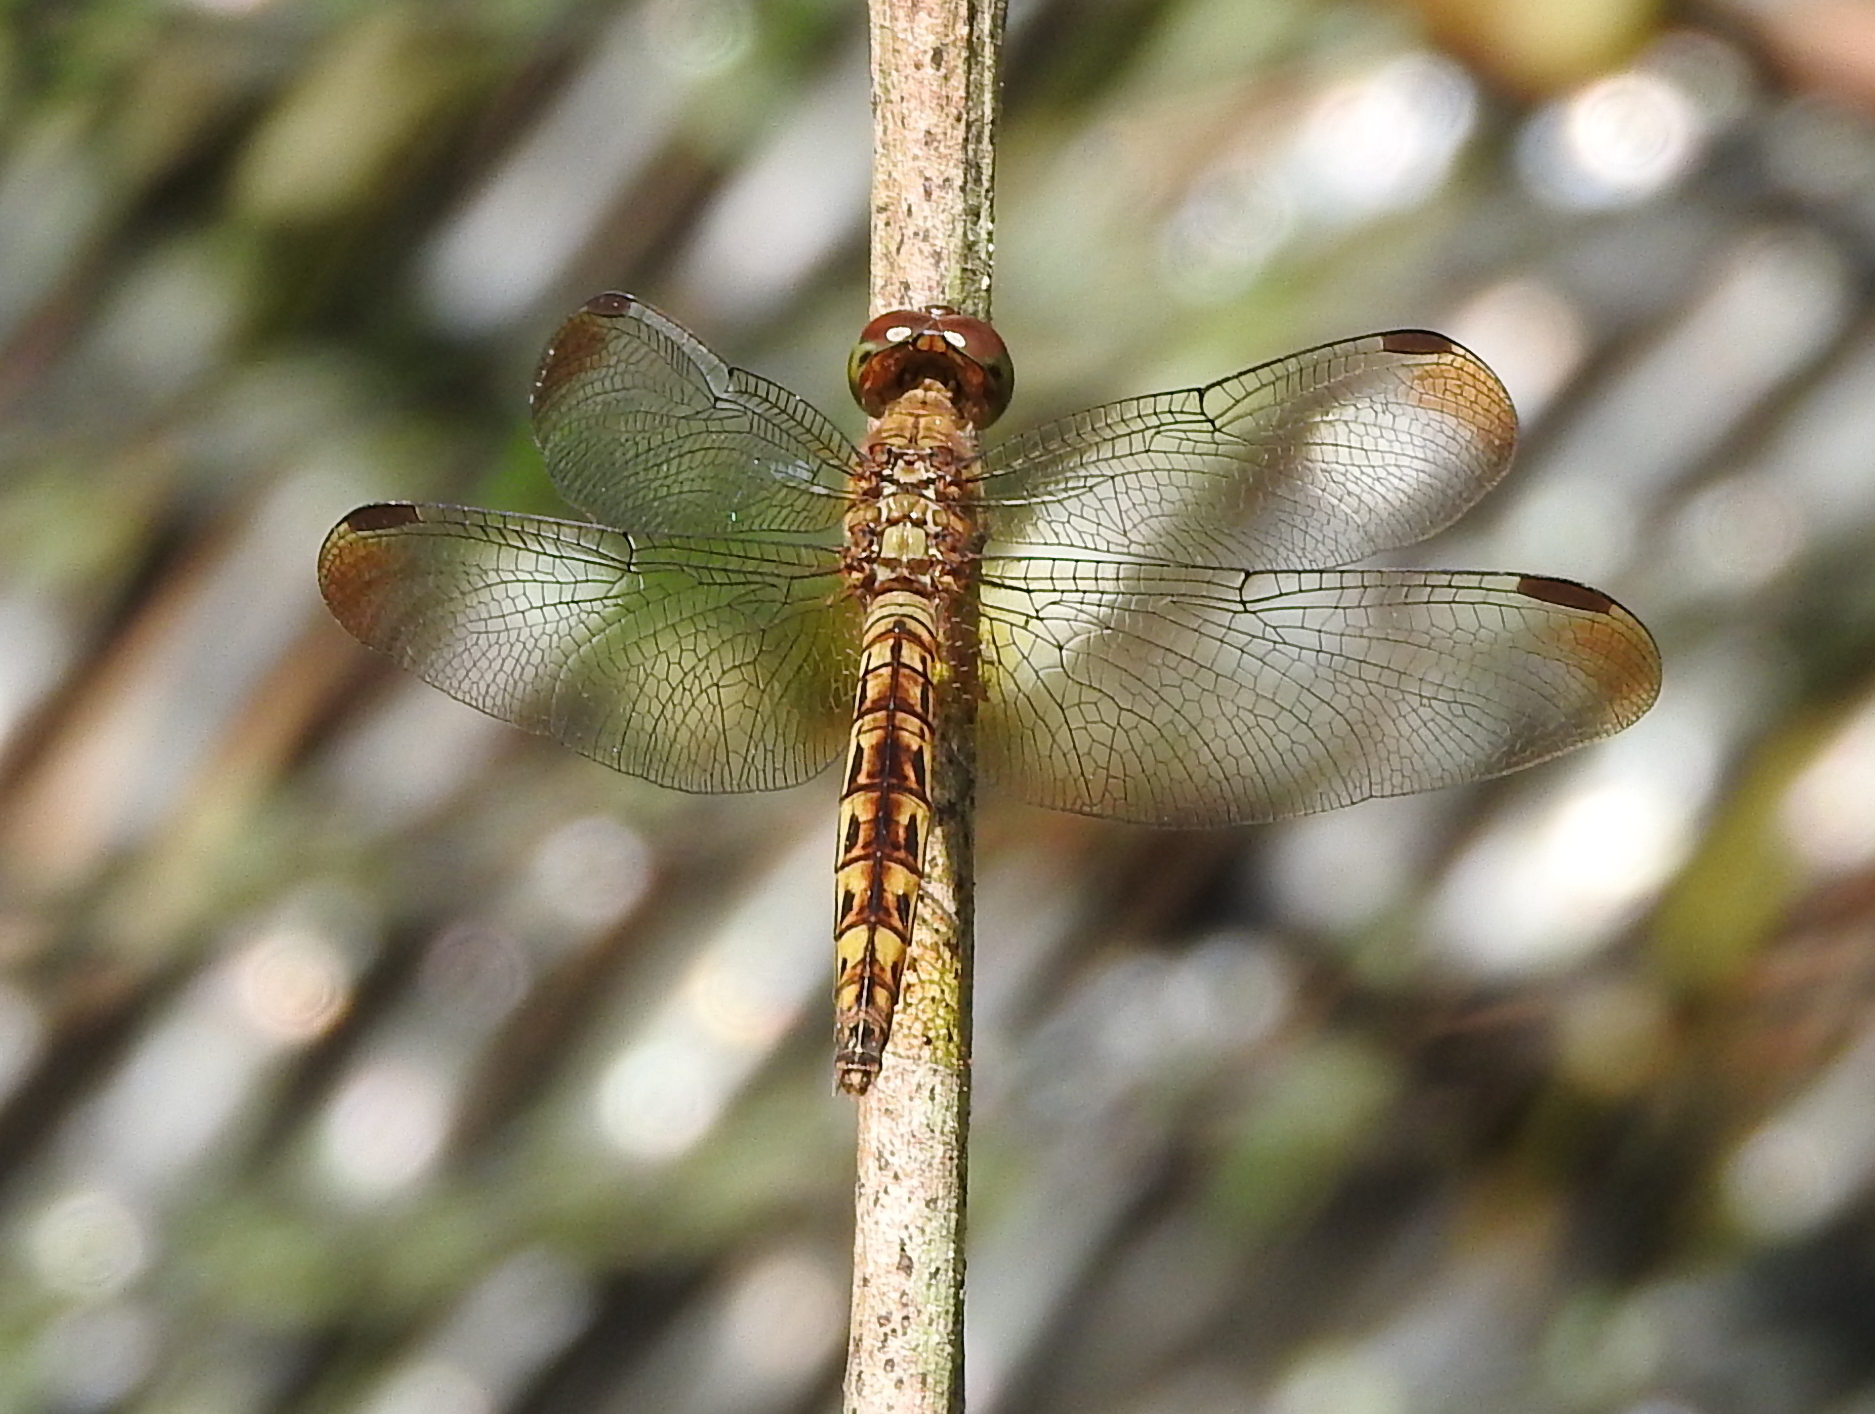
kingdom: Animalia
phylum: Arthropoda
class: Insecta
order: Odonata
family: Libellulidae
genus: Neurothemis
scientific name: Neurothemis fluctuans
